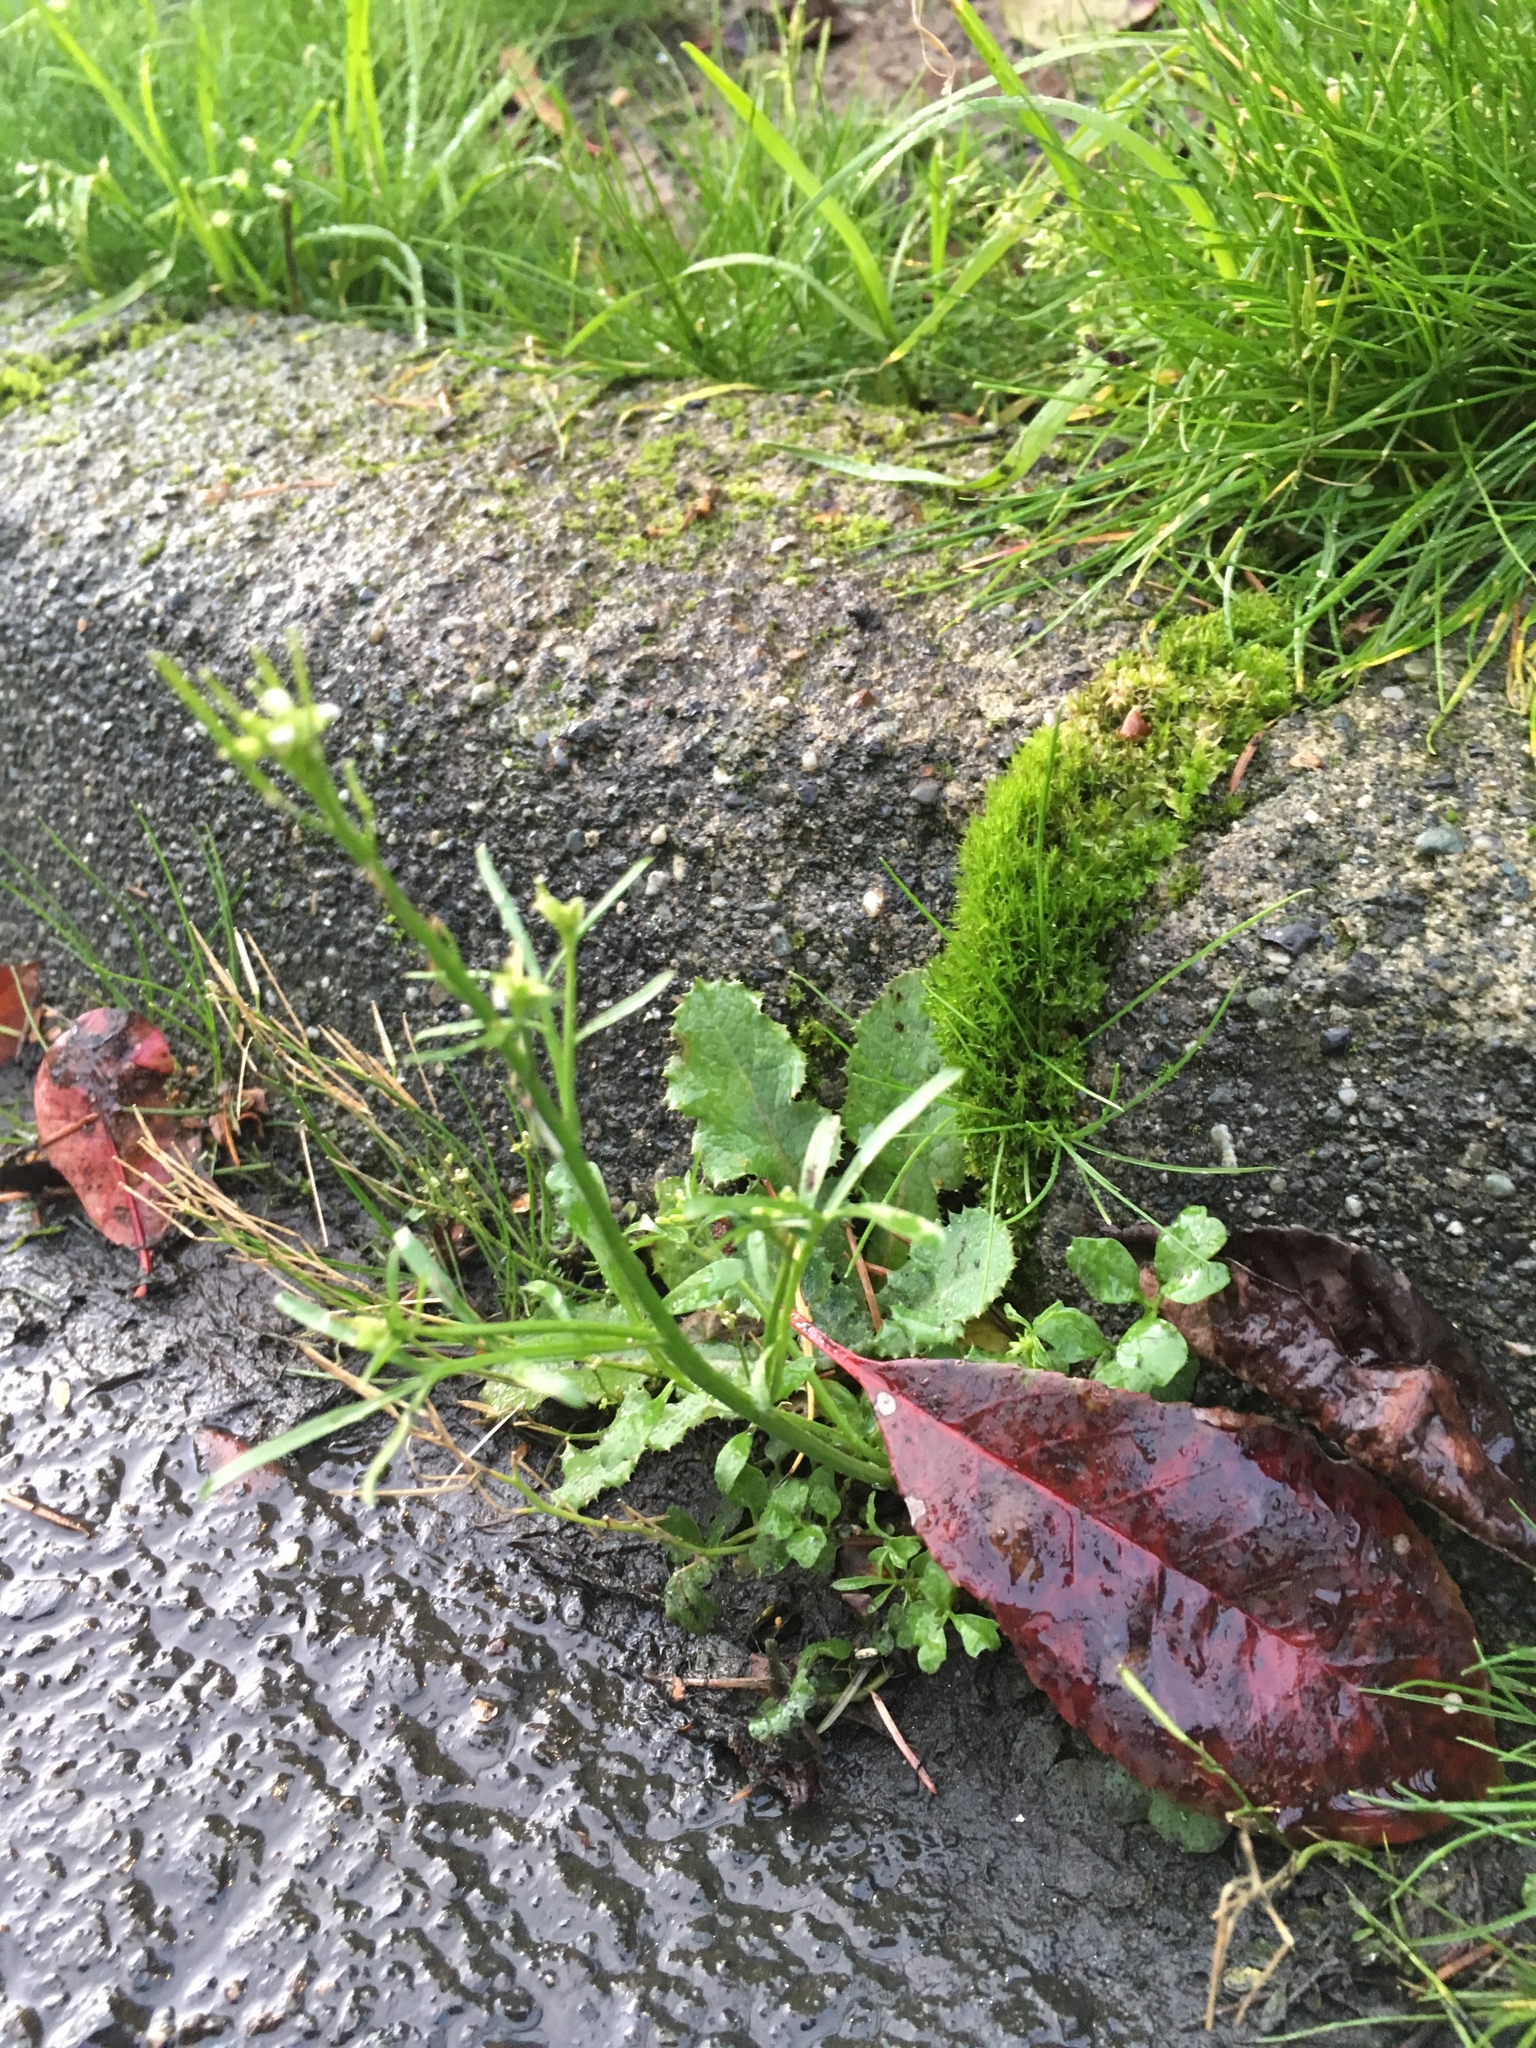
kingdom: Plantae
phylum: Tracheophyta
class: Magnoliopsida
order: Brassicales
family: Brassicaceae
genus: Cardamine
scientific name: Cardamine hirsuta
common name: Hairy bittercress
